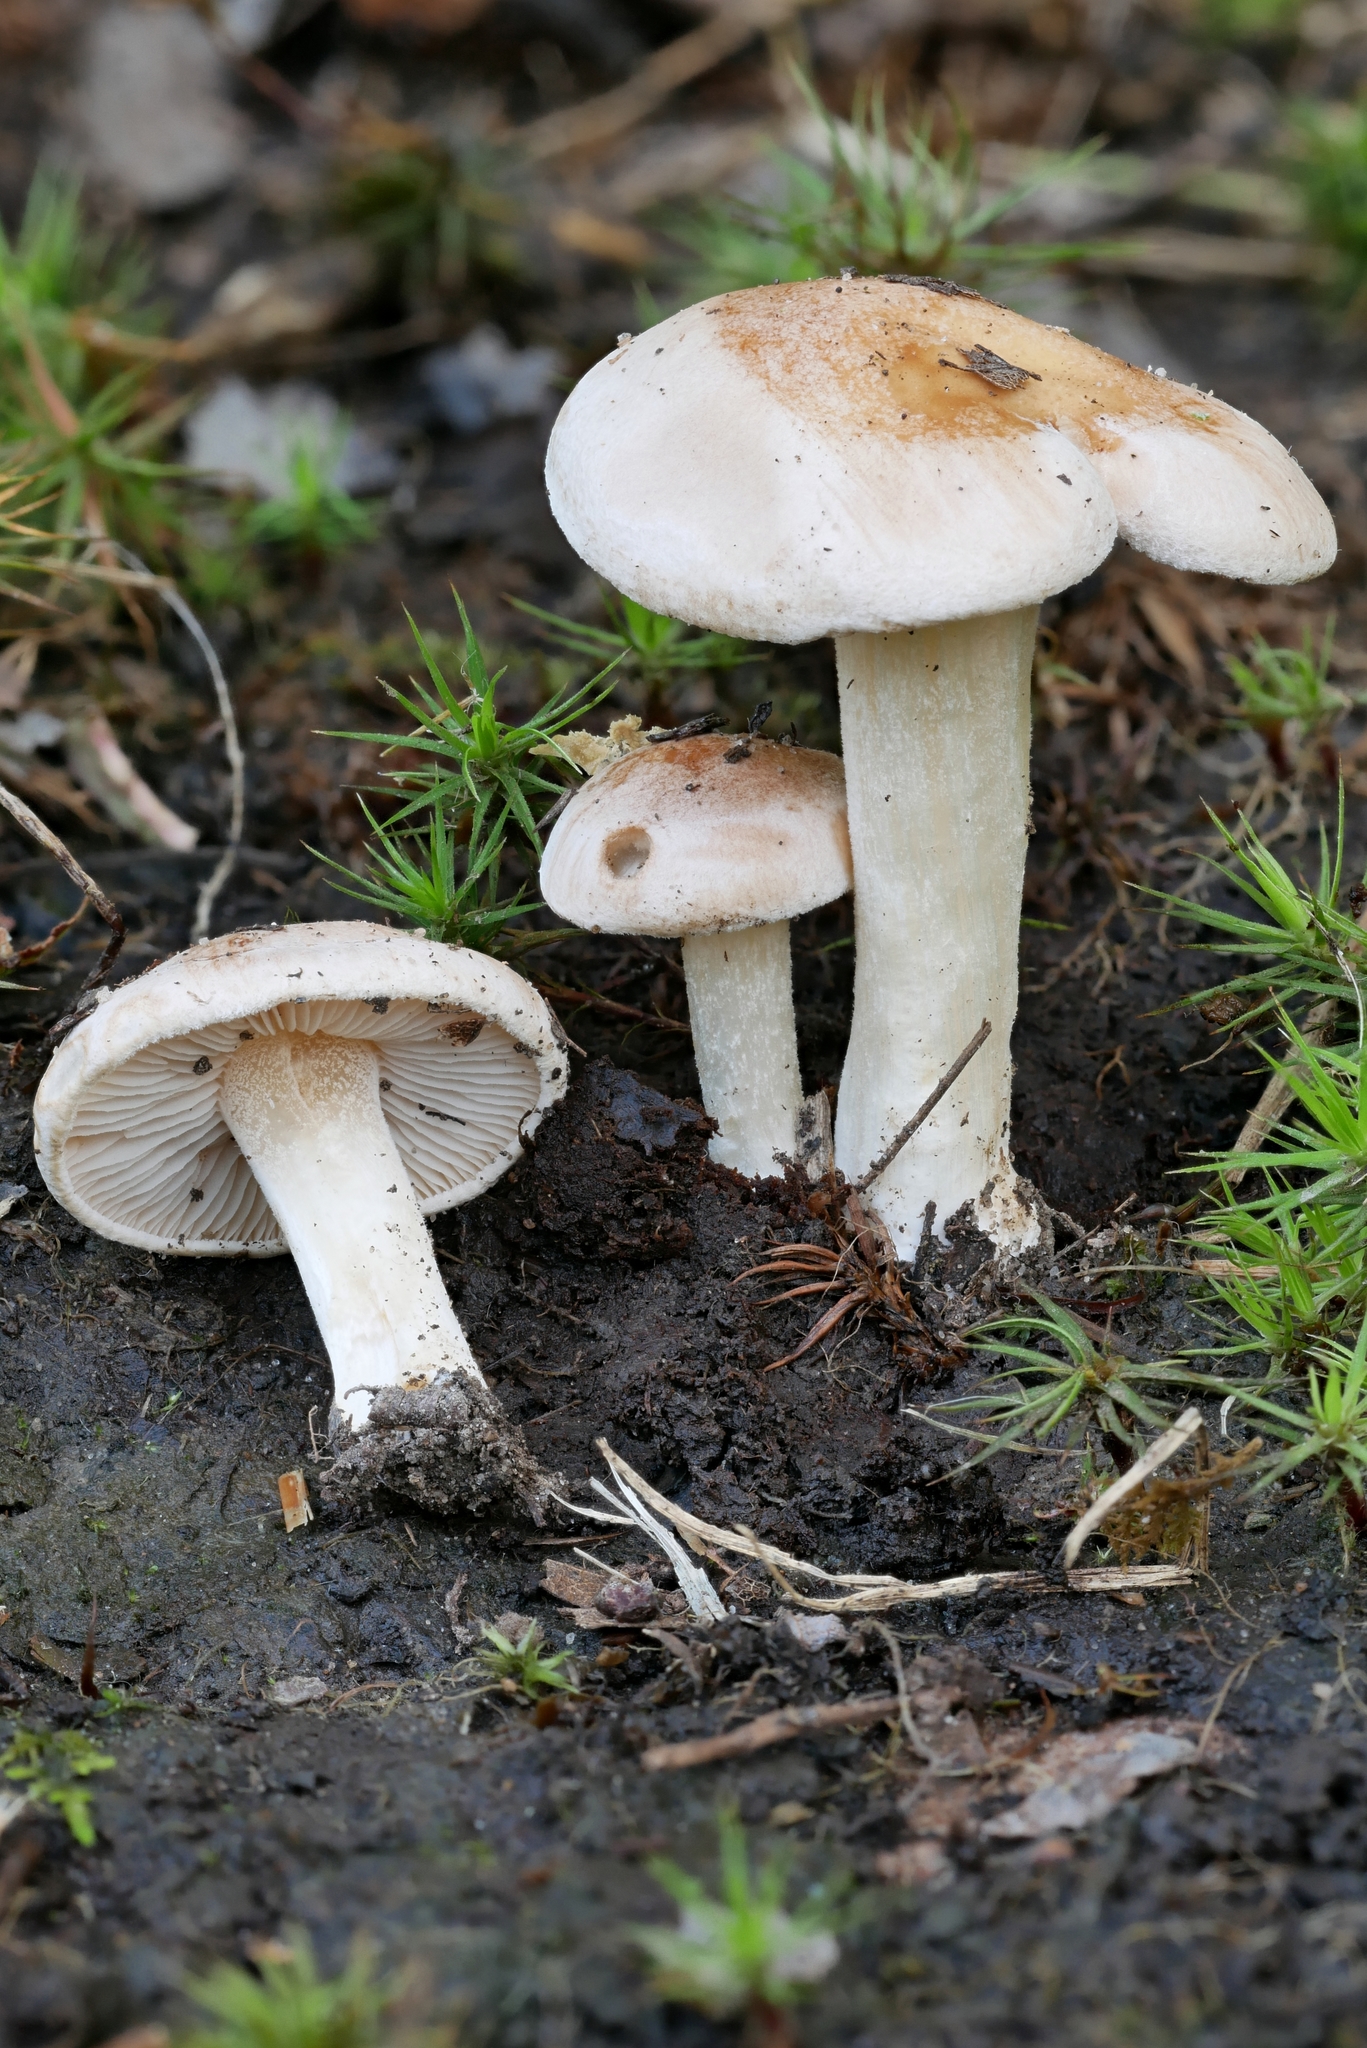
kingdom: Fungi
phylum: Basidiomycota
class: Agaricomycetes
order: Agaricales
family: Hymenogastraceae
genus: Hebeloma
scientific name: Hebeloma sordidum
